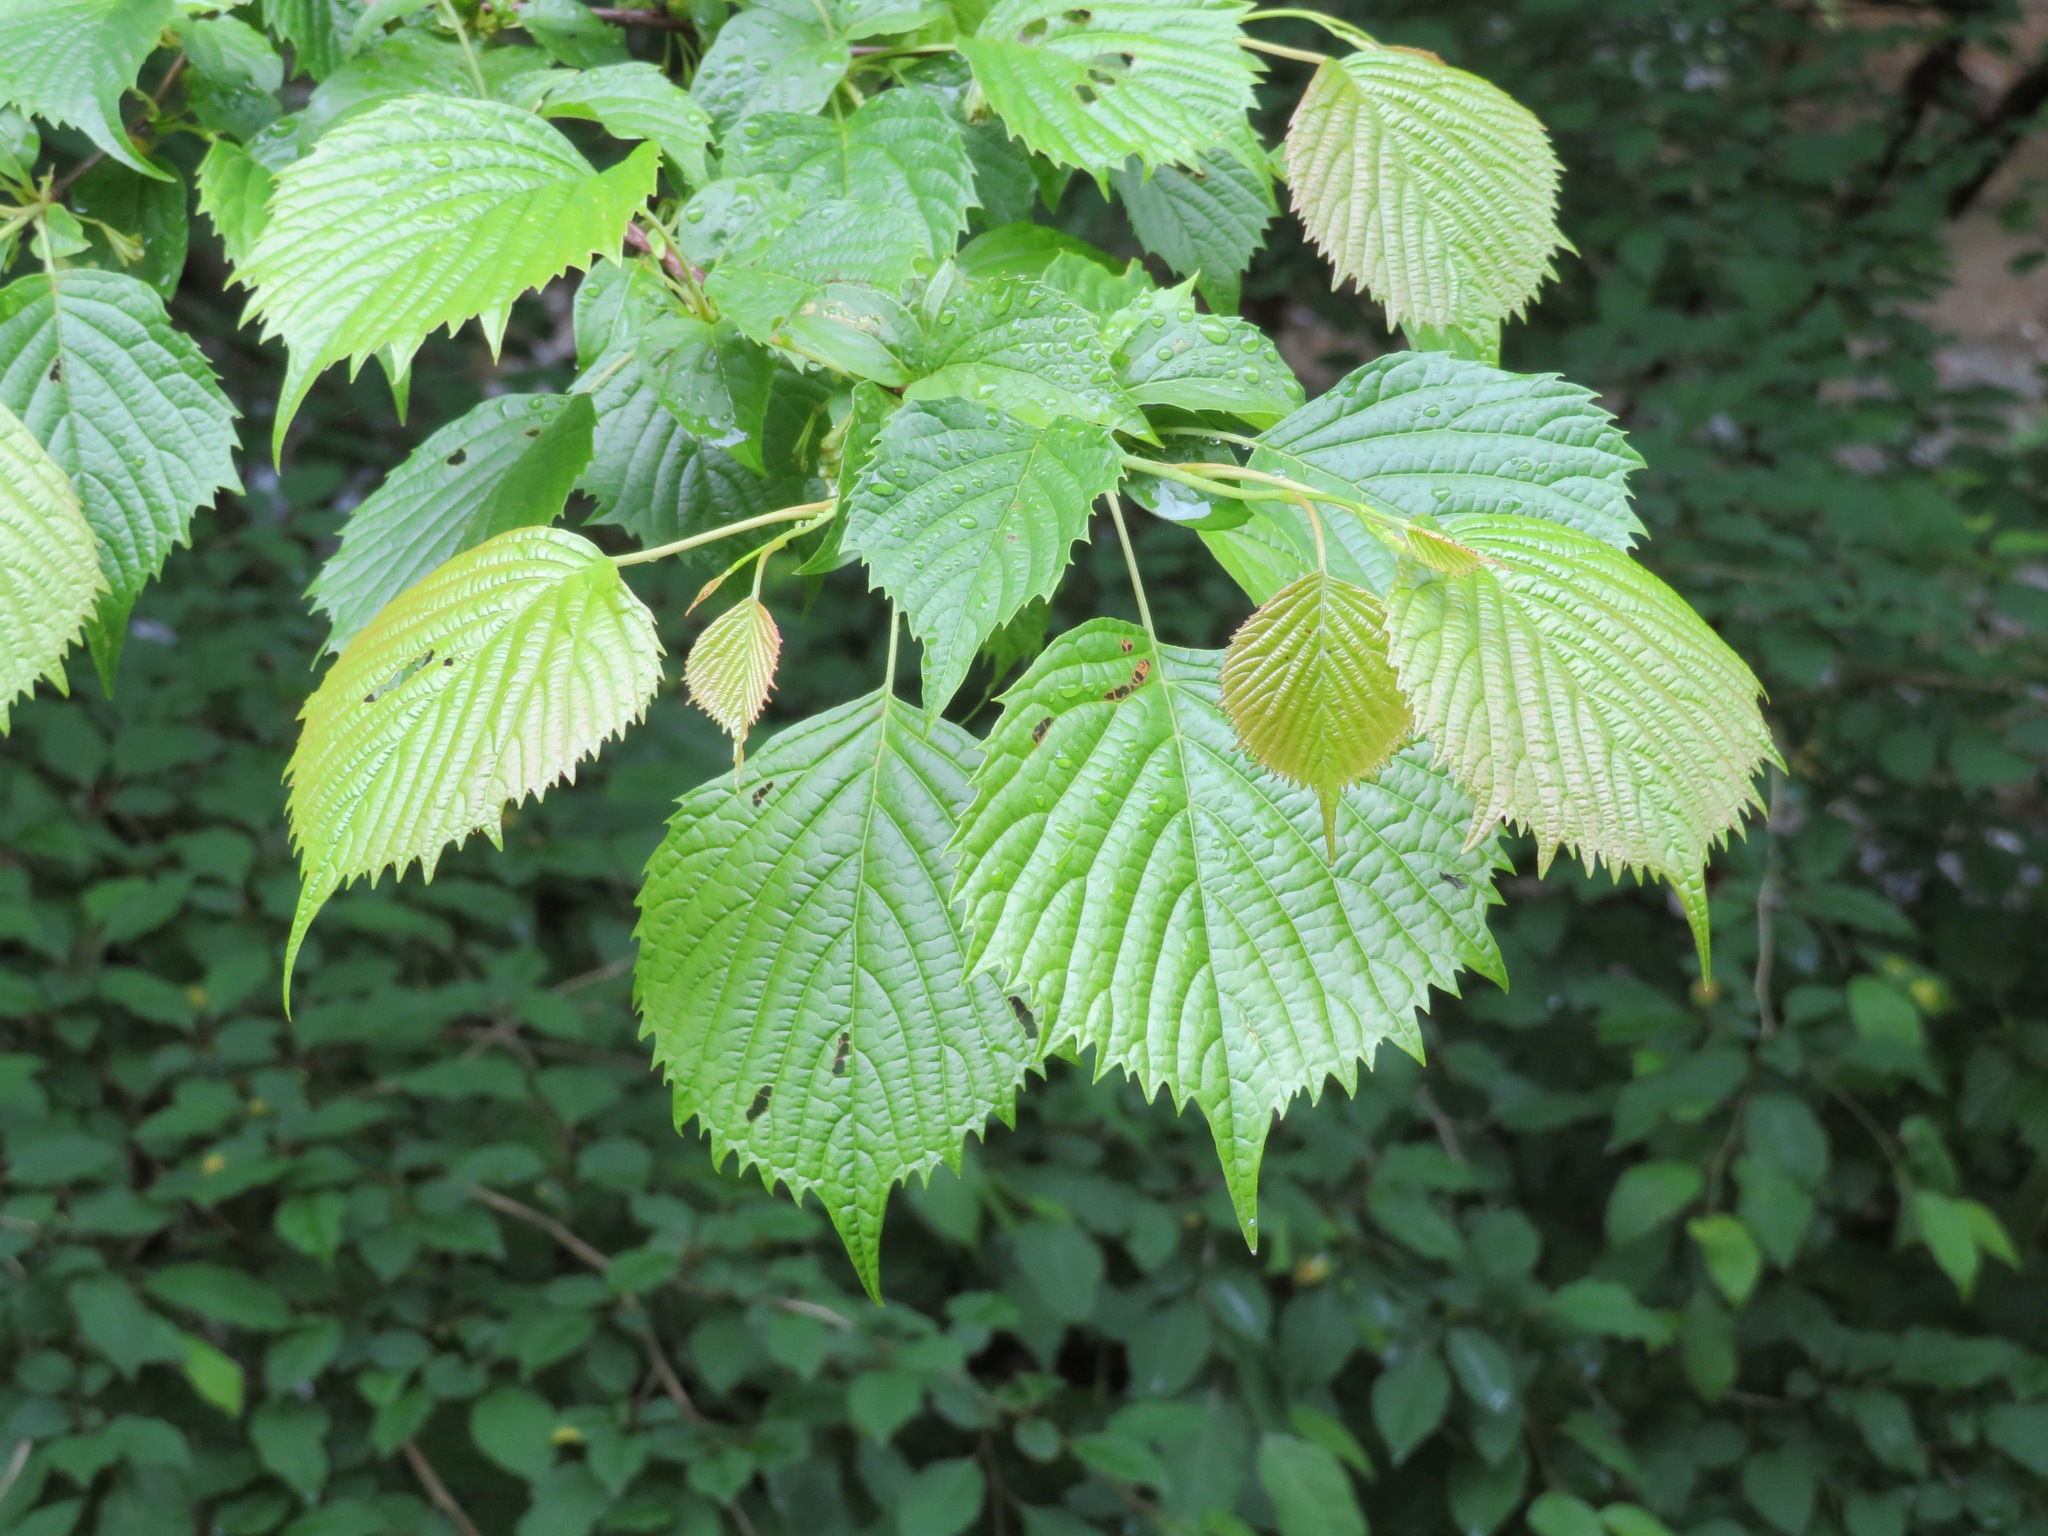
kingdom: Plantae
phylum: Tracheophyta
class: Magnoliopsida
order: Ranunculales
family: Eupteleaceae
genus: Euptelea
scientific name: Euptelea polyandra
